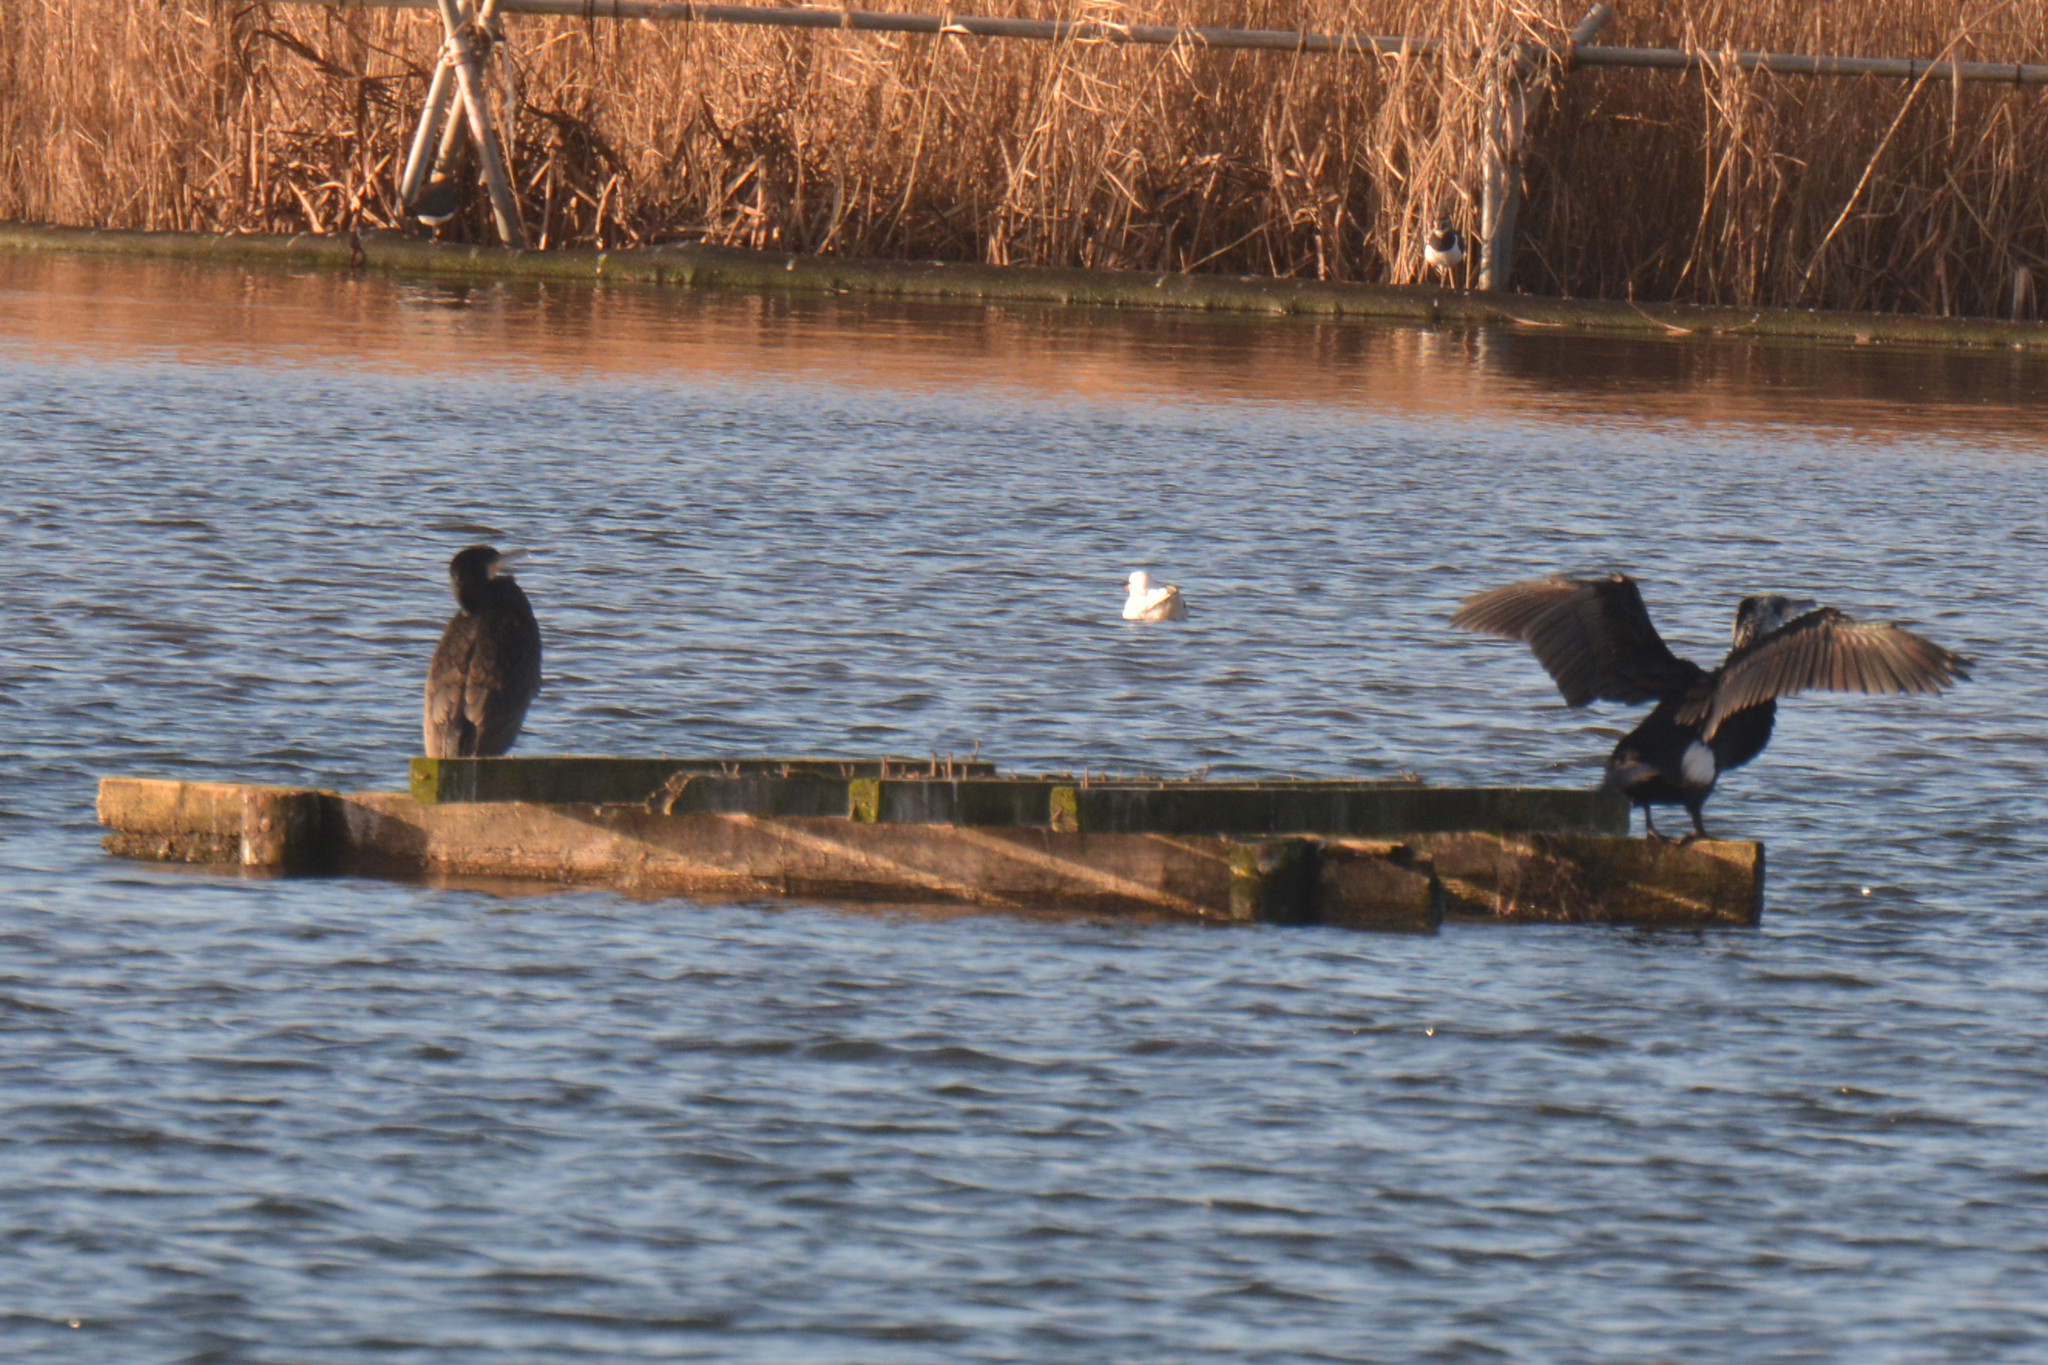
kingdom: Animalia
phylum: Chordata
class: Aves
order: Suliformes
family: Phalacrocoracidae
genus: Phalacrocorax
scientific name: Phalacrocorax carbo
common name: Great cormorant
